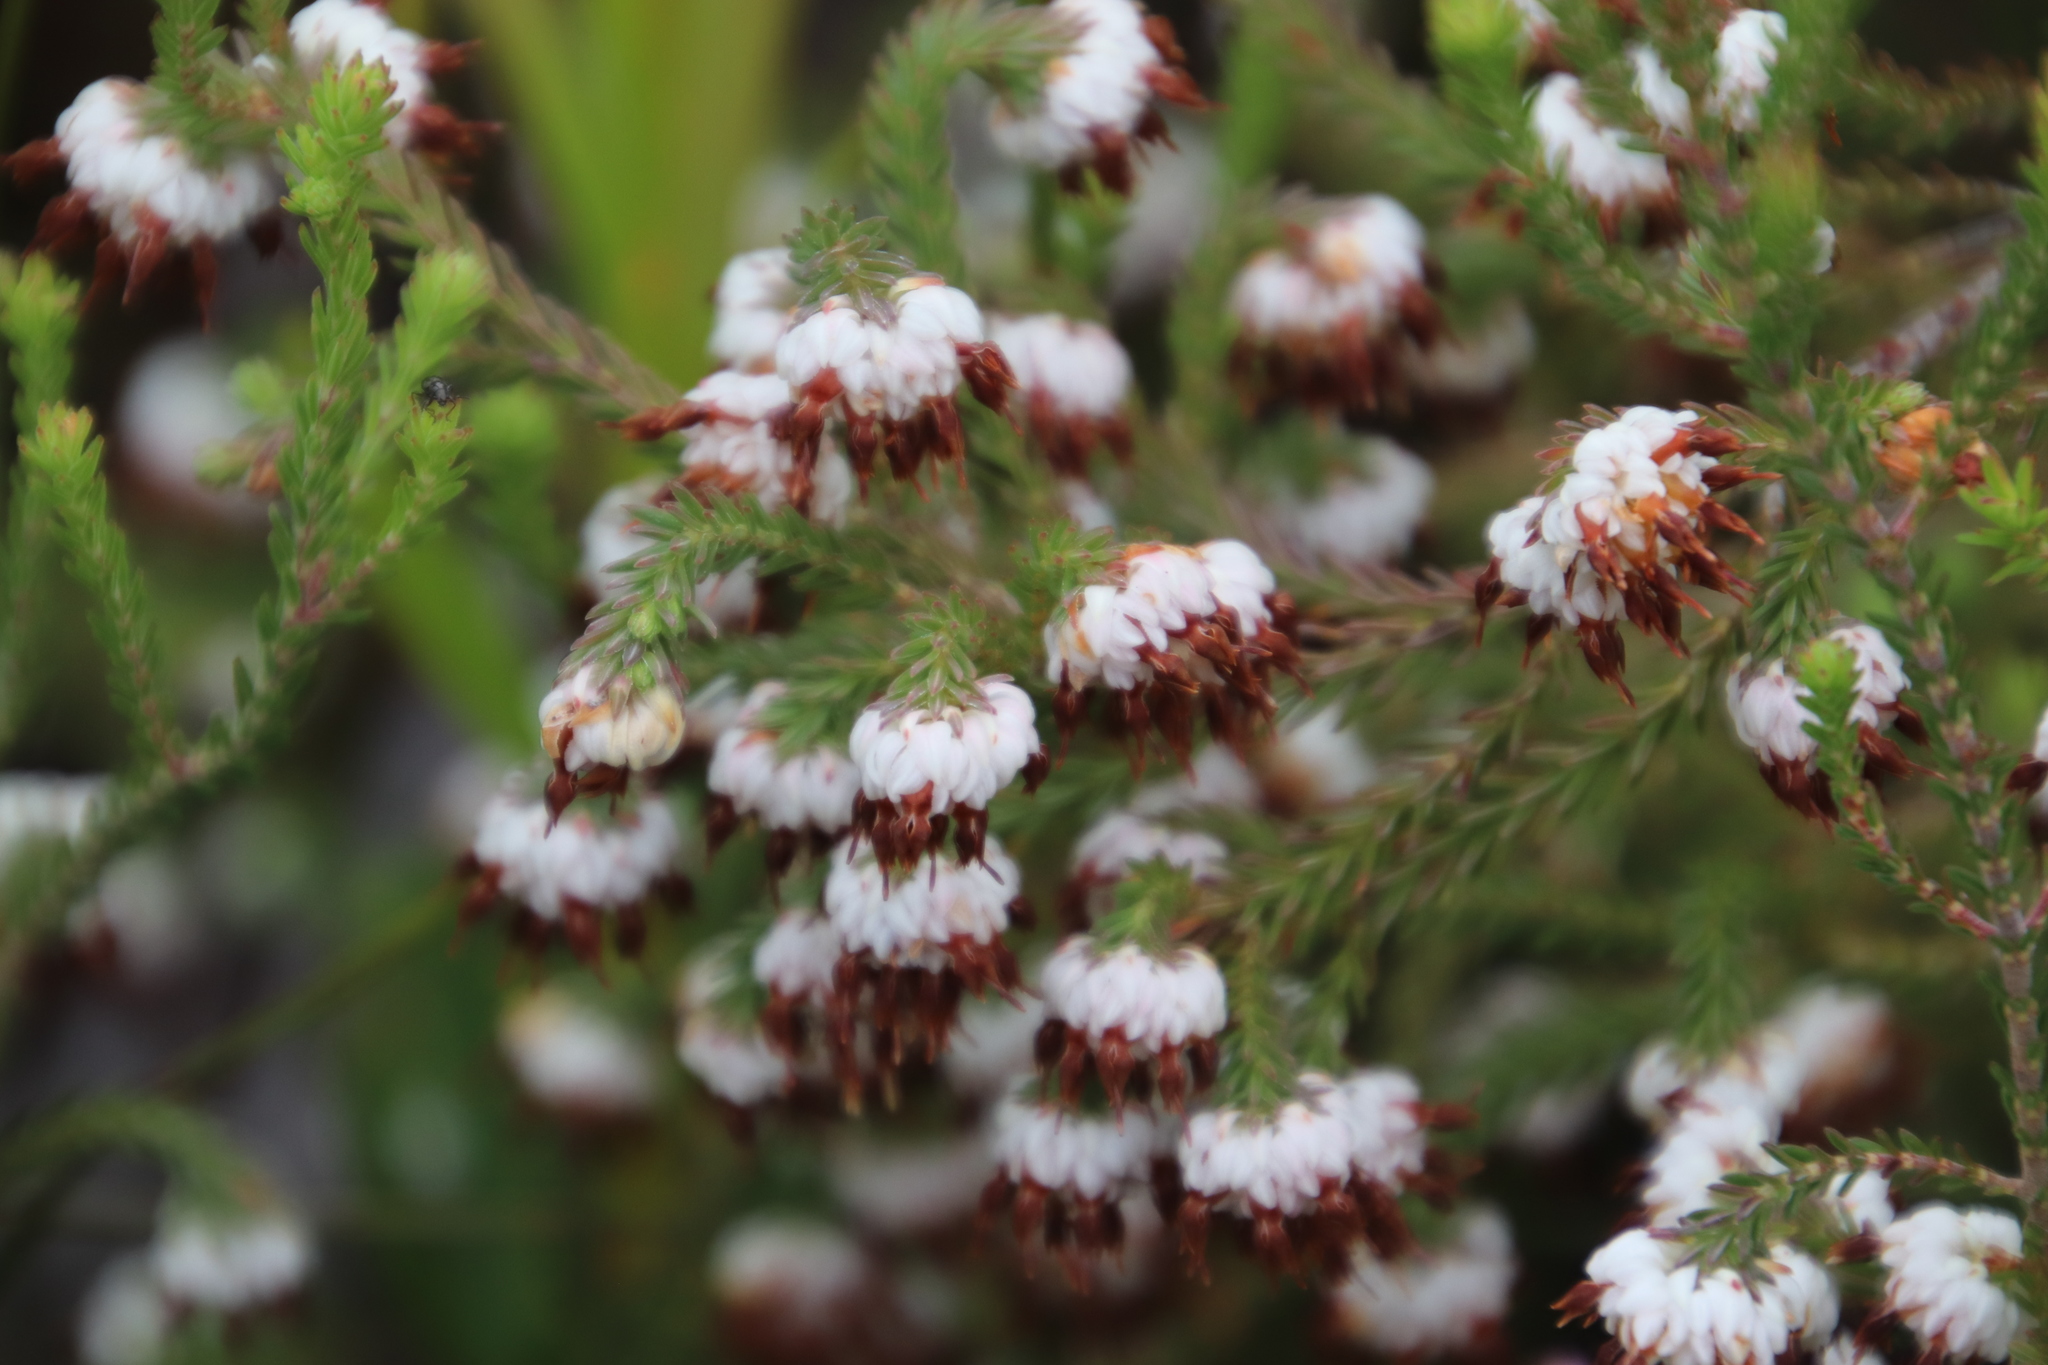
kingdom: Plantae
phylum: Tracheophyta
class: Magnoliopsida
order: Ericales
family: Ericaceae
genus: Erica
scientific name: Erica cumuliflora
